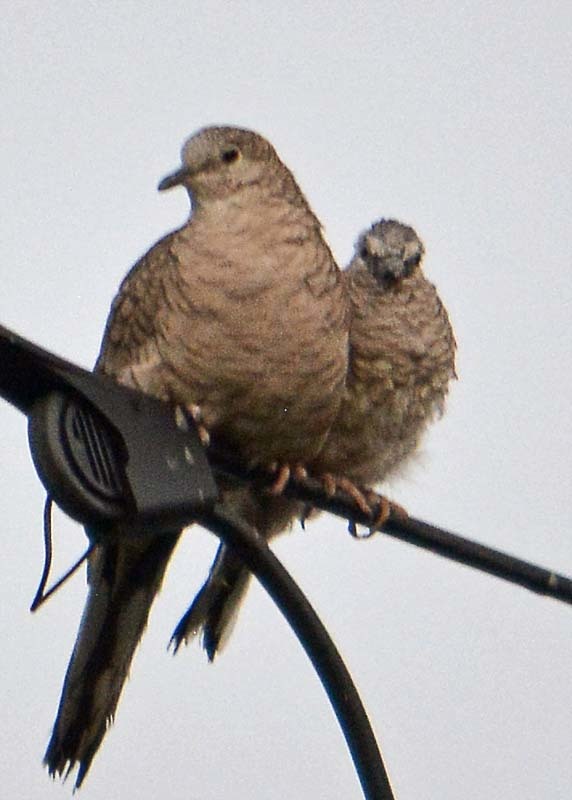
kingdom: Animalia
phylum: Chordata
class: Aves
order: Columbiformes
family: Columbidae
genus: Columbina
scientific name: Columbina inca
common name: Inca dove
